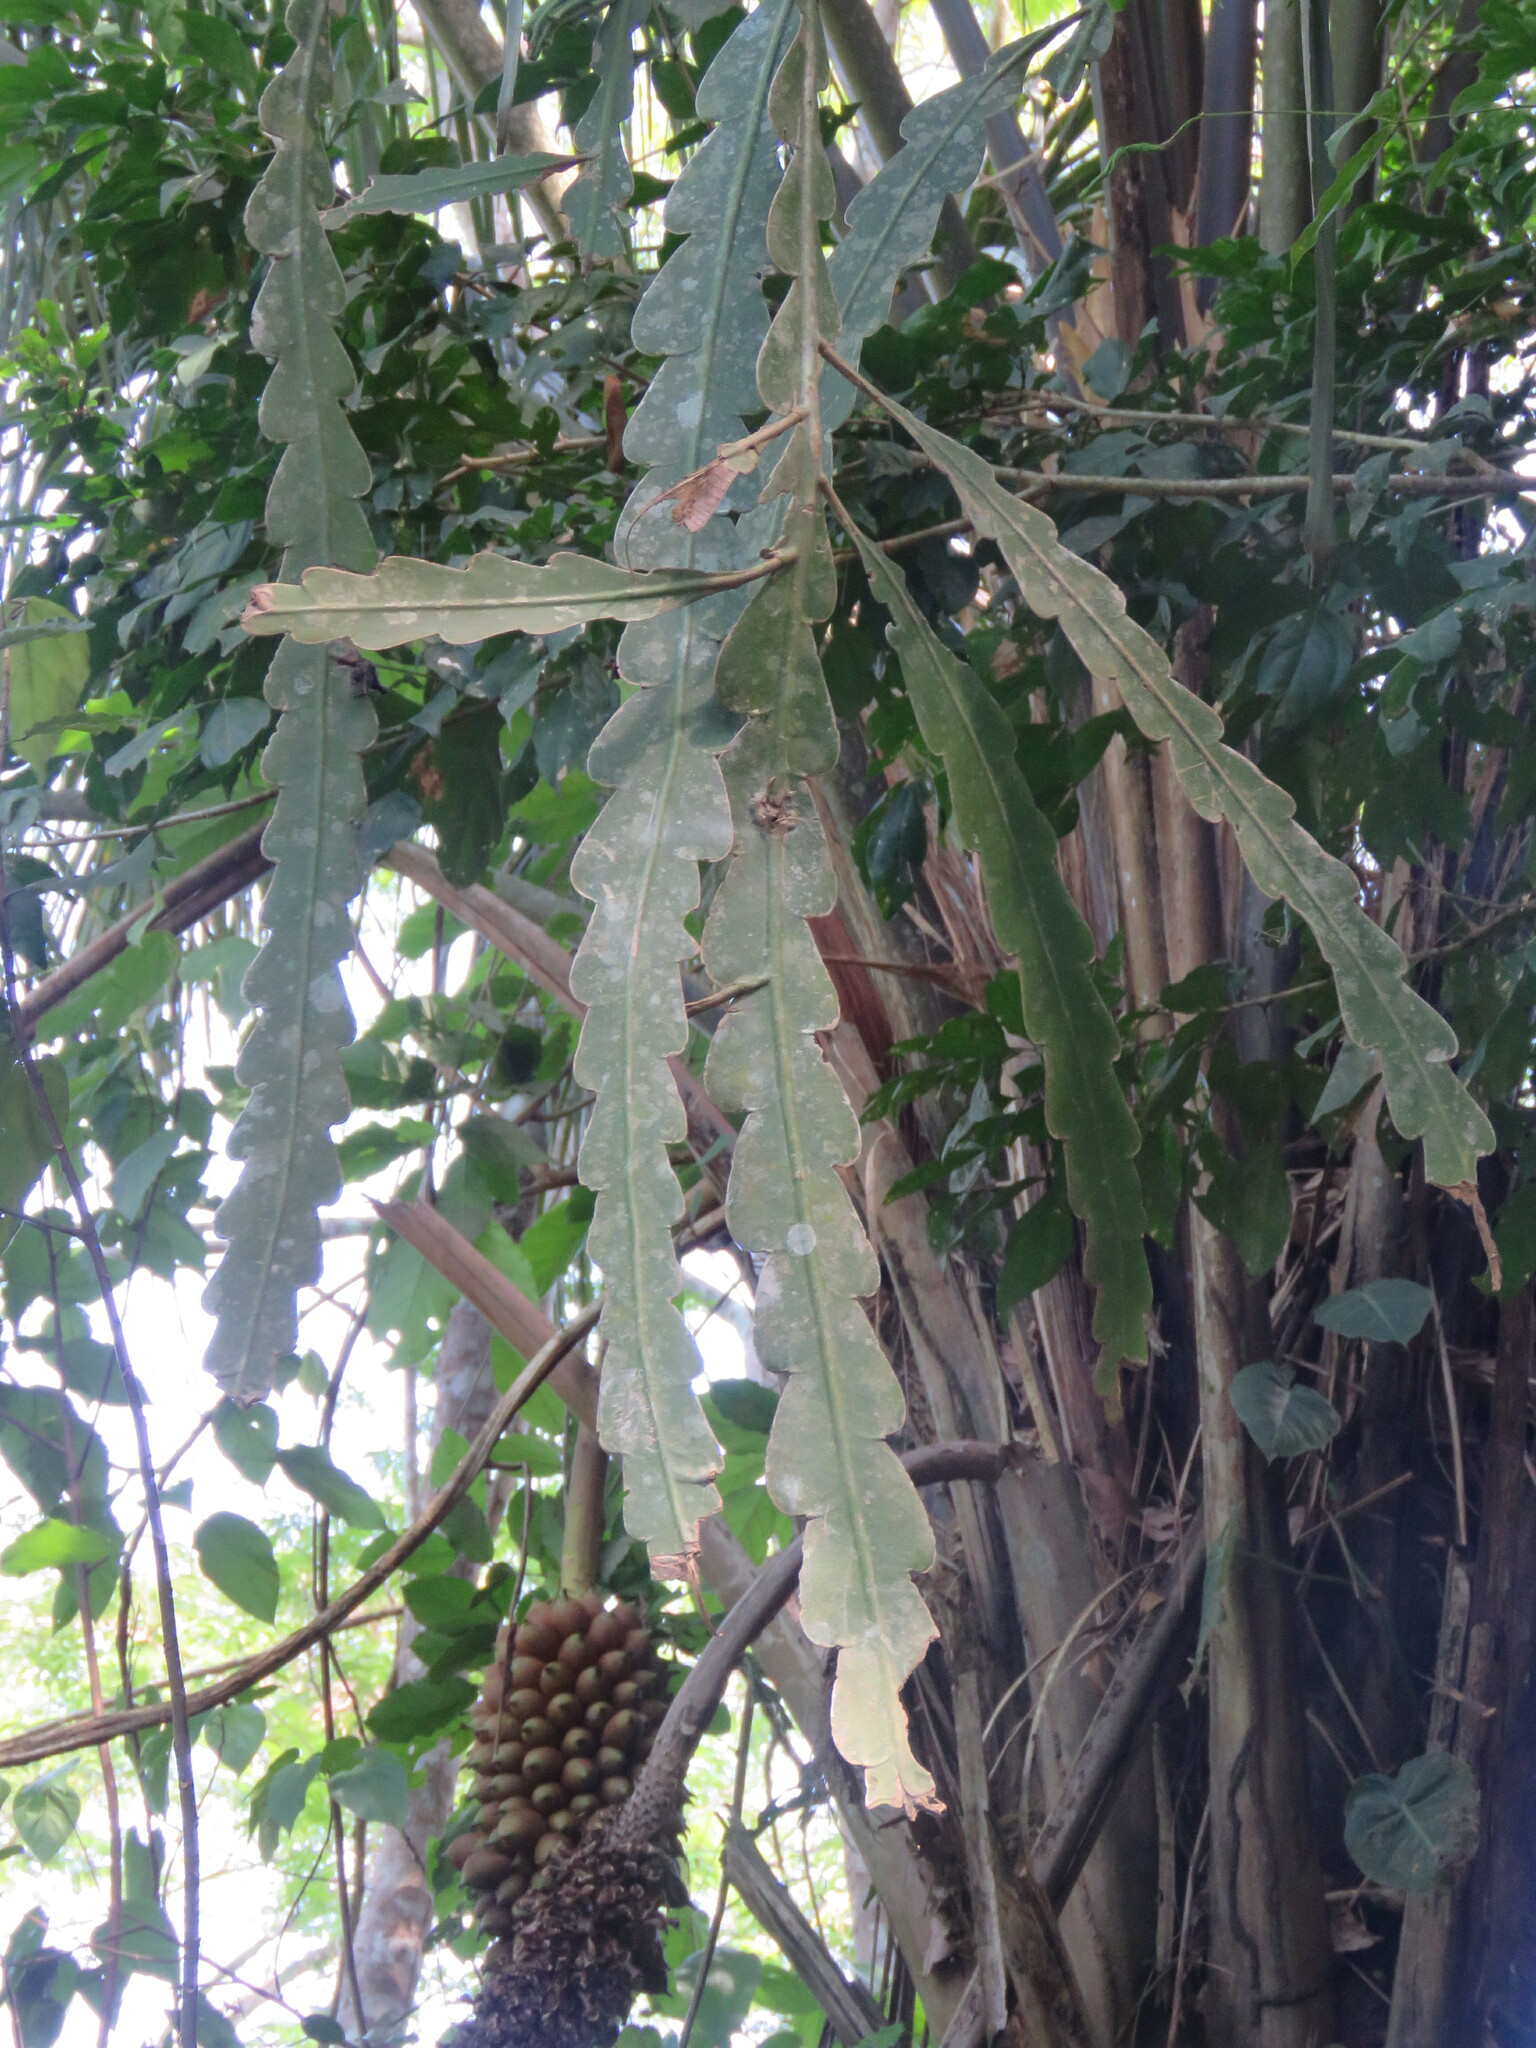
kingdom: Plantae
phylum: Tracheophyta
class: Magnoliopsida
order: Caryophyllales
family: Cactaceae
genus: Epiphyllum
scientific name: Epiphyllum phyllanthus
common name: Climbing cactus
